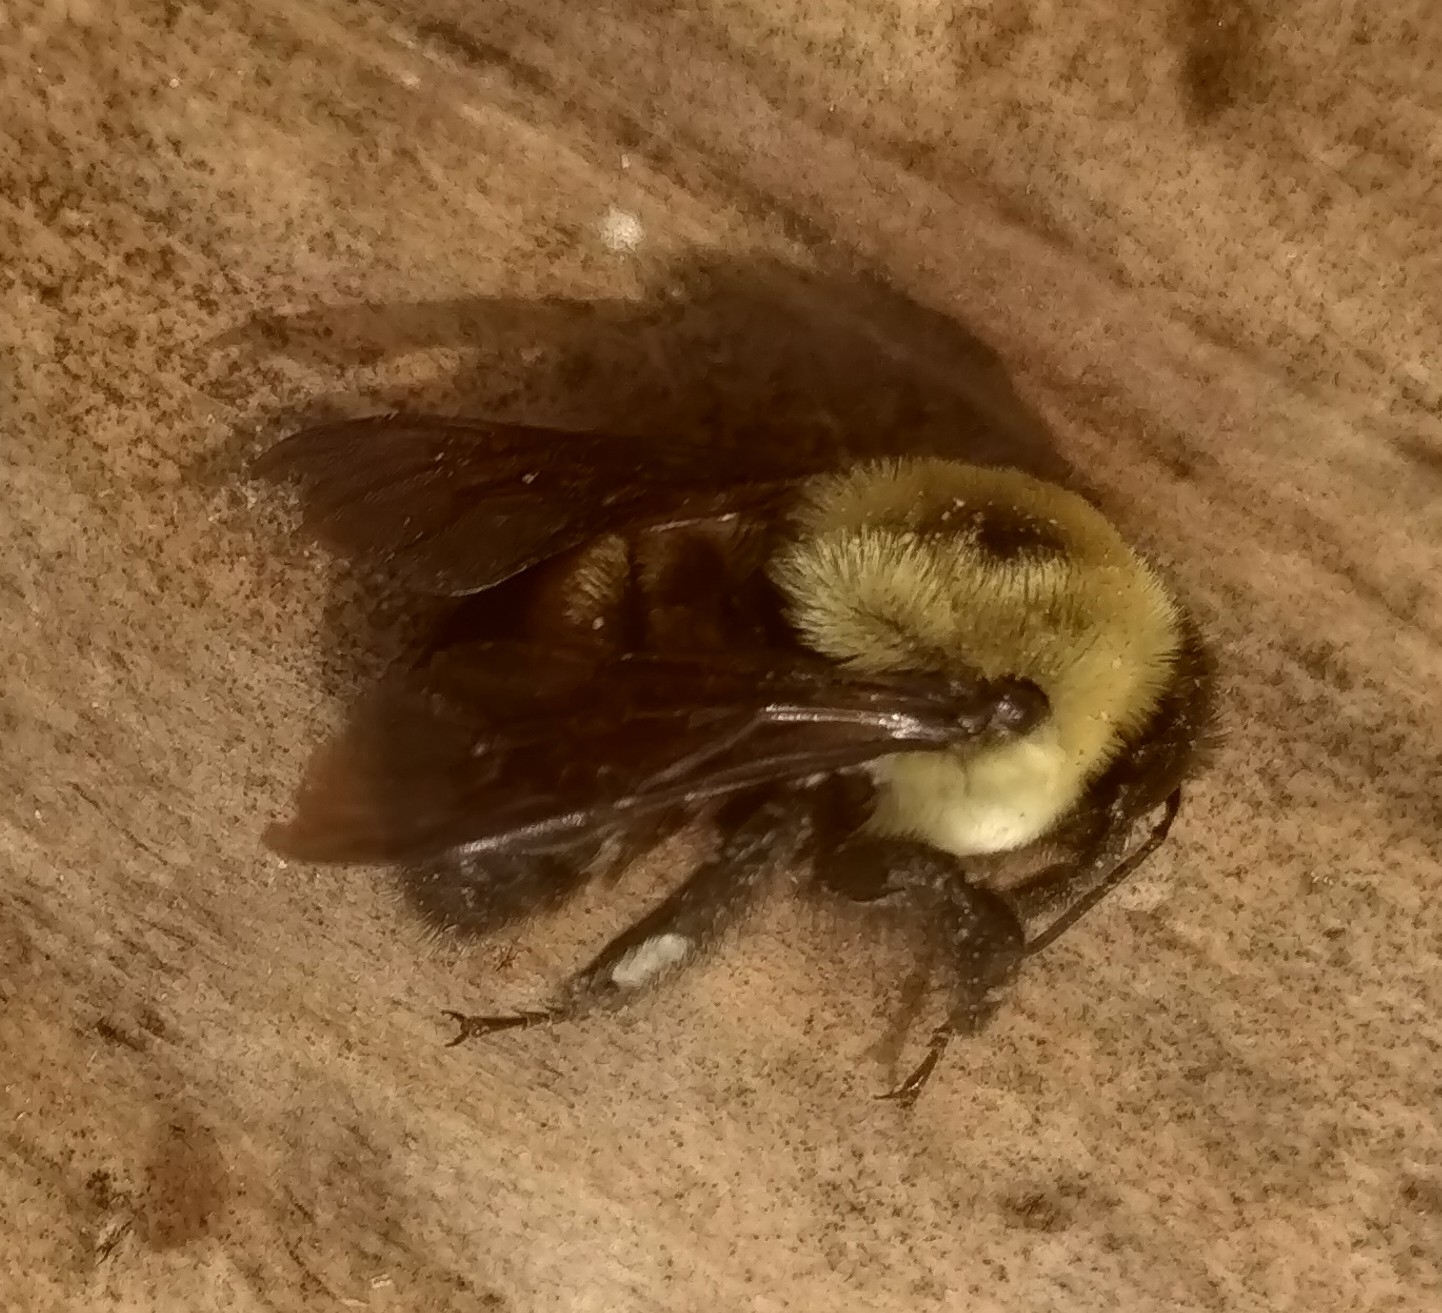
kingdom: Animalia
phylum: Arthropoda
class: Insecta
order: Hymenoptera
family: Apidae
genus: Bombus
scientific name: Bombus griseocollis
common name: Brown-belted bumble bee
